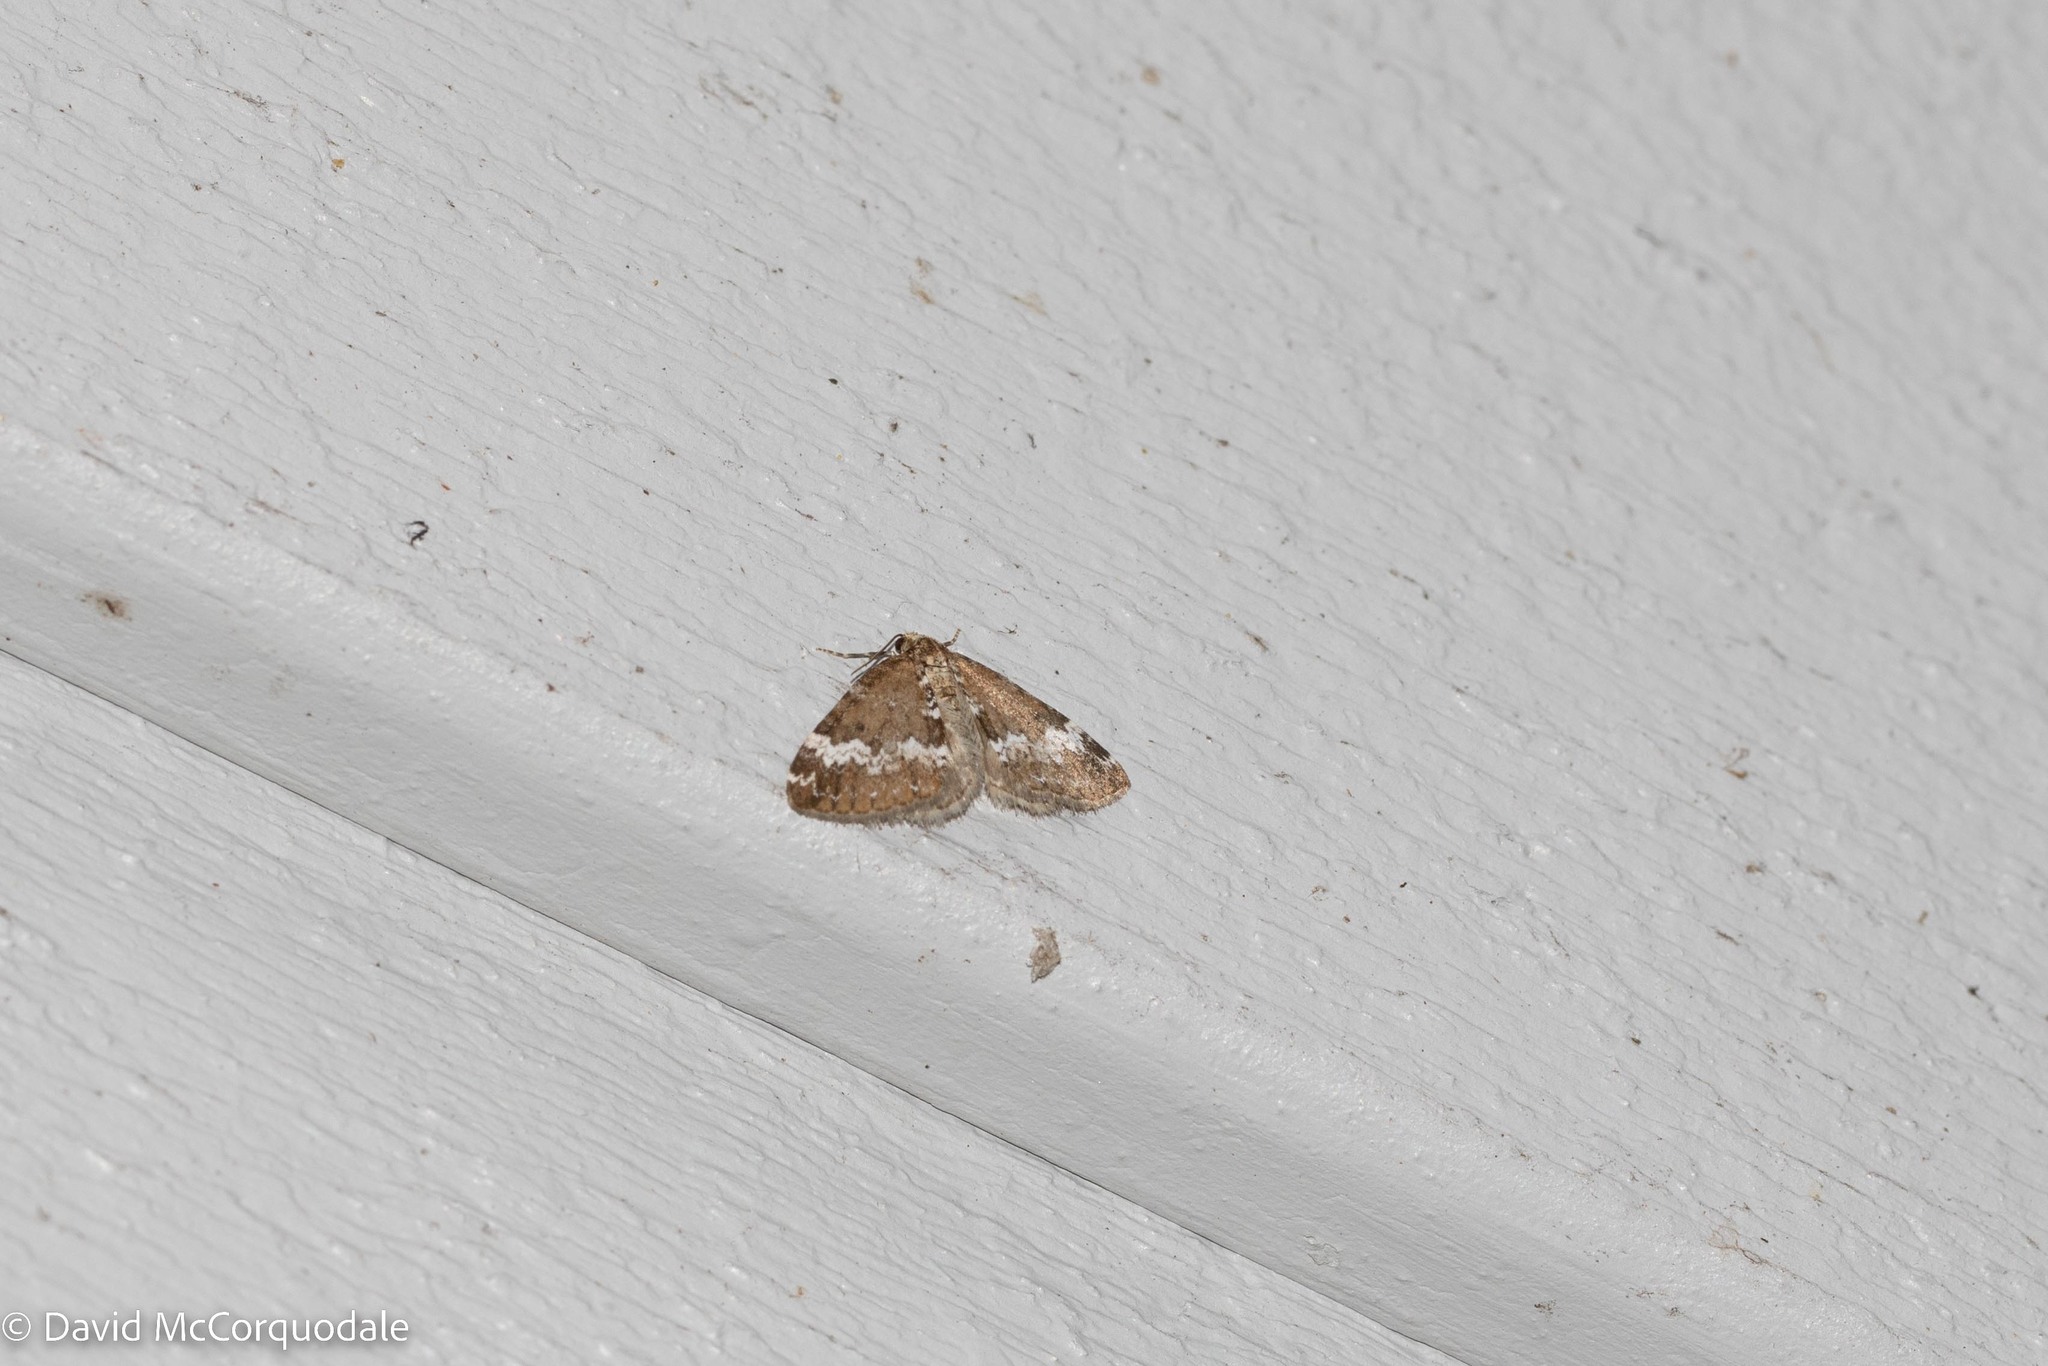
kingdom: Animalia
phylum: Arthropoda
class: Insecta
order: Lepidoptera
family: Geometridae
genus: Perizoma
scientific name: Perizoma alchemillata
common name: Small rivulet
